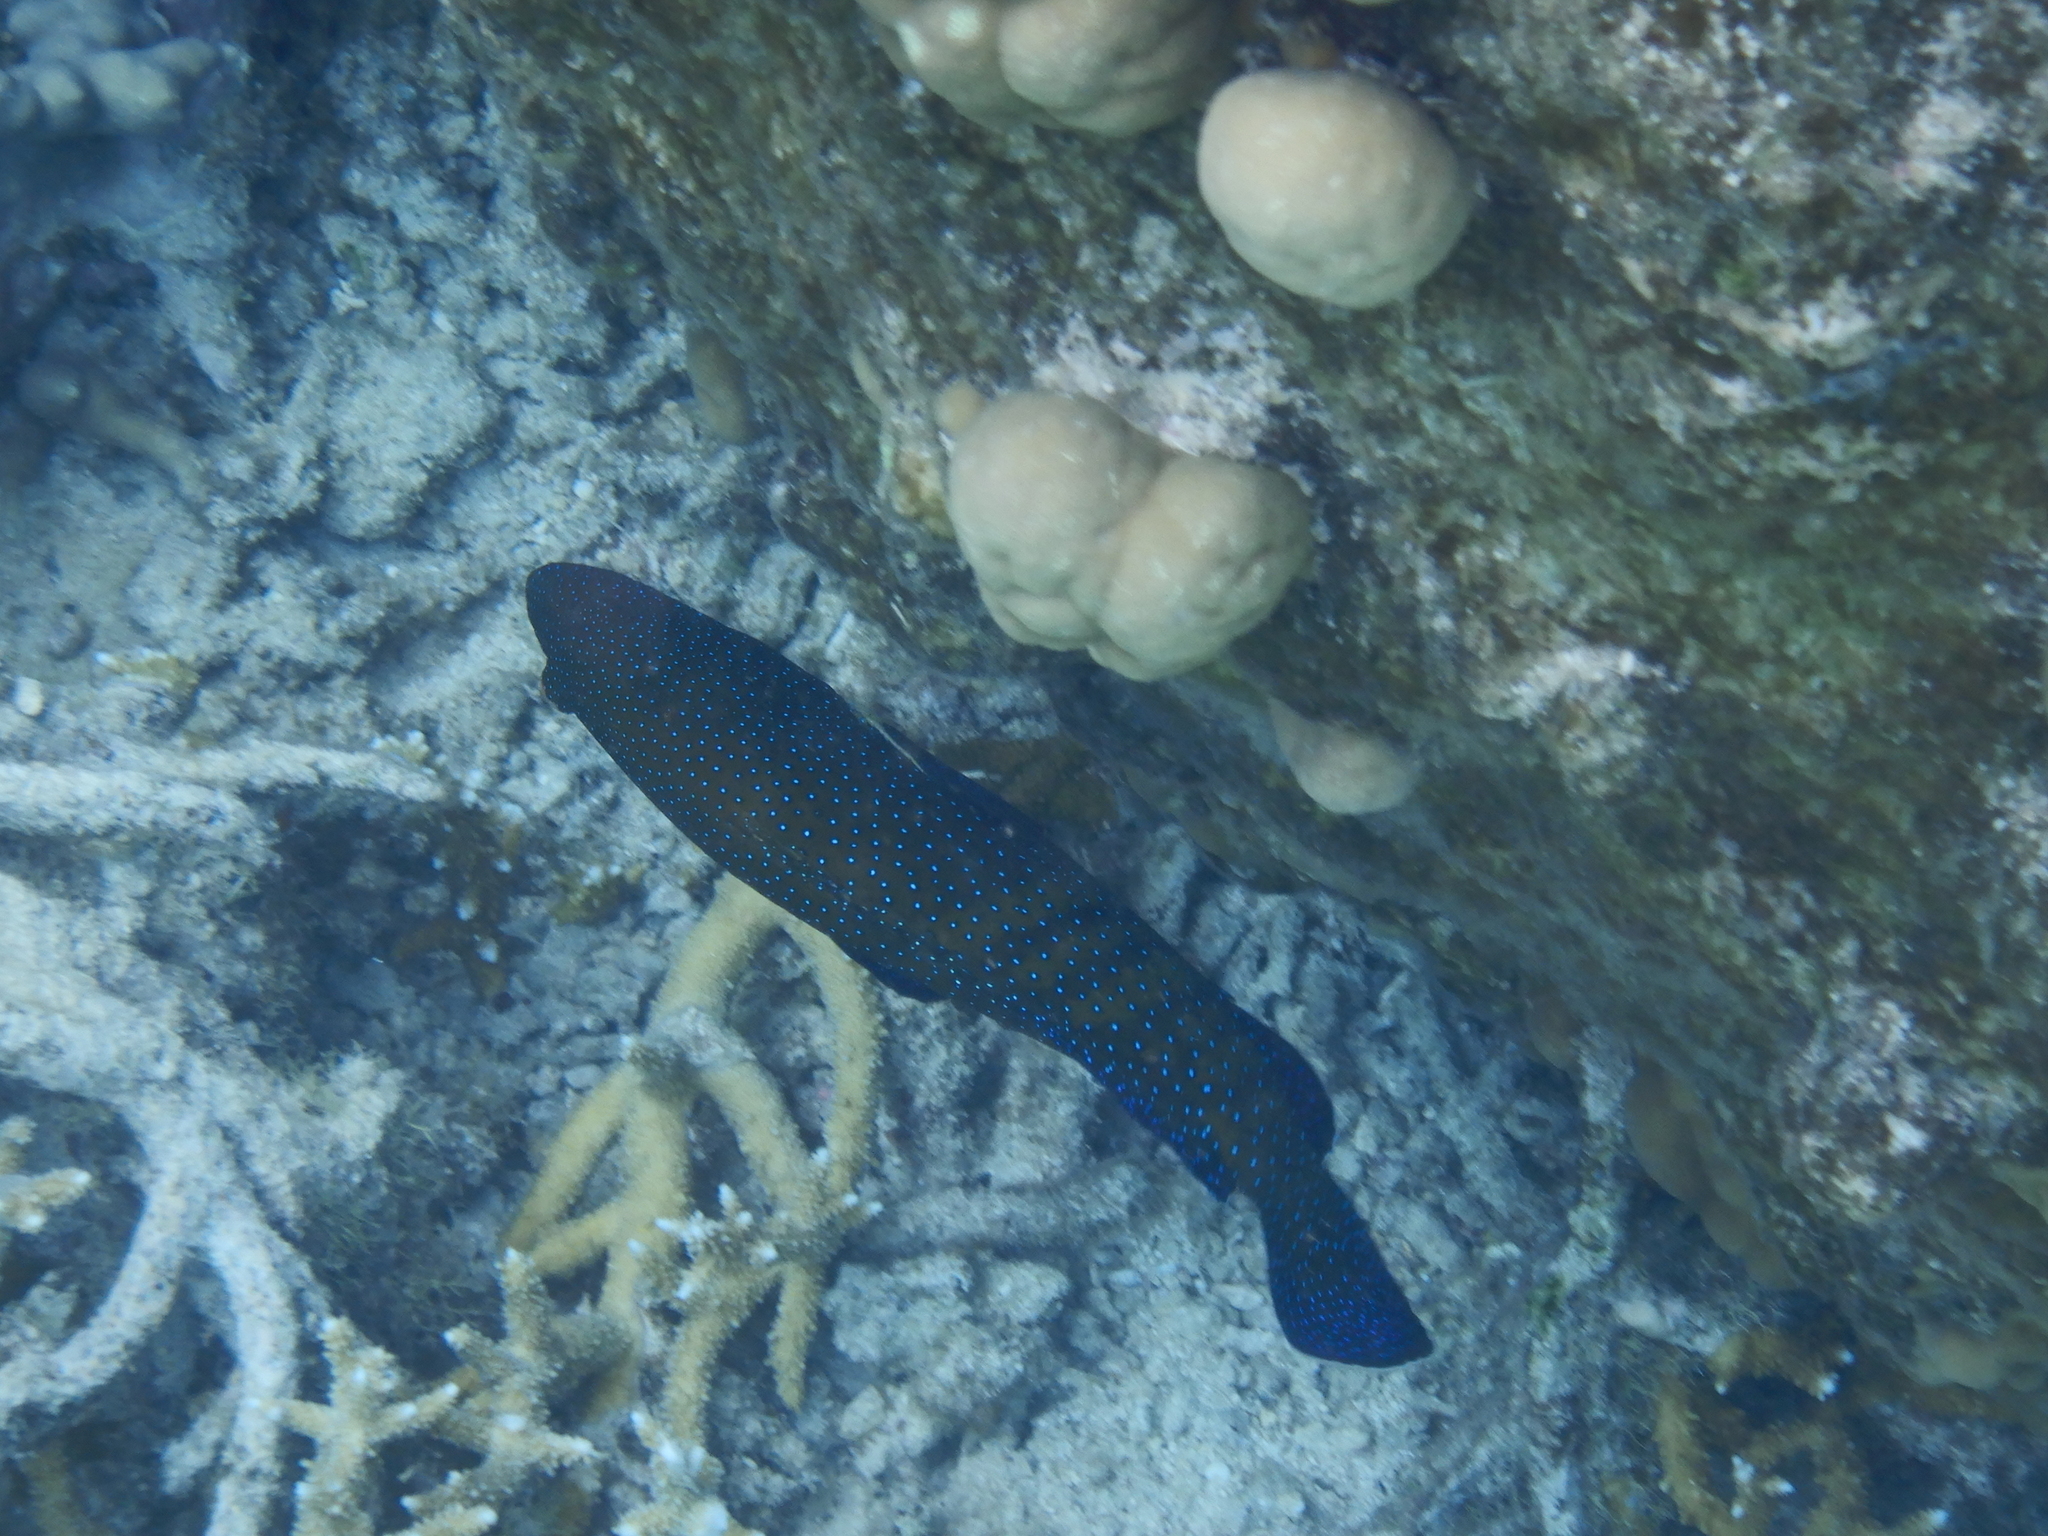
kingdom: Animalia
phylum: Chordata
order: Perciformes
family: Serranidae
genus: Cephalopholis
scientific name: Cephalopholis argus
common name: Peacock grouper
